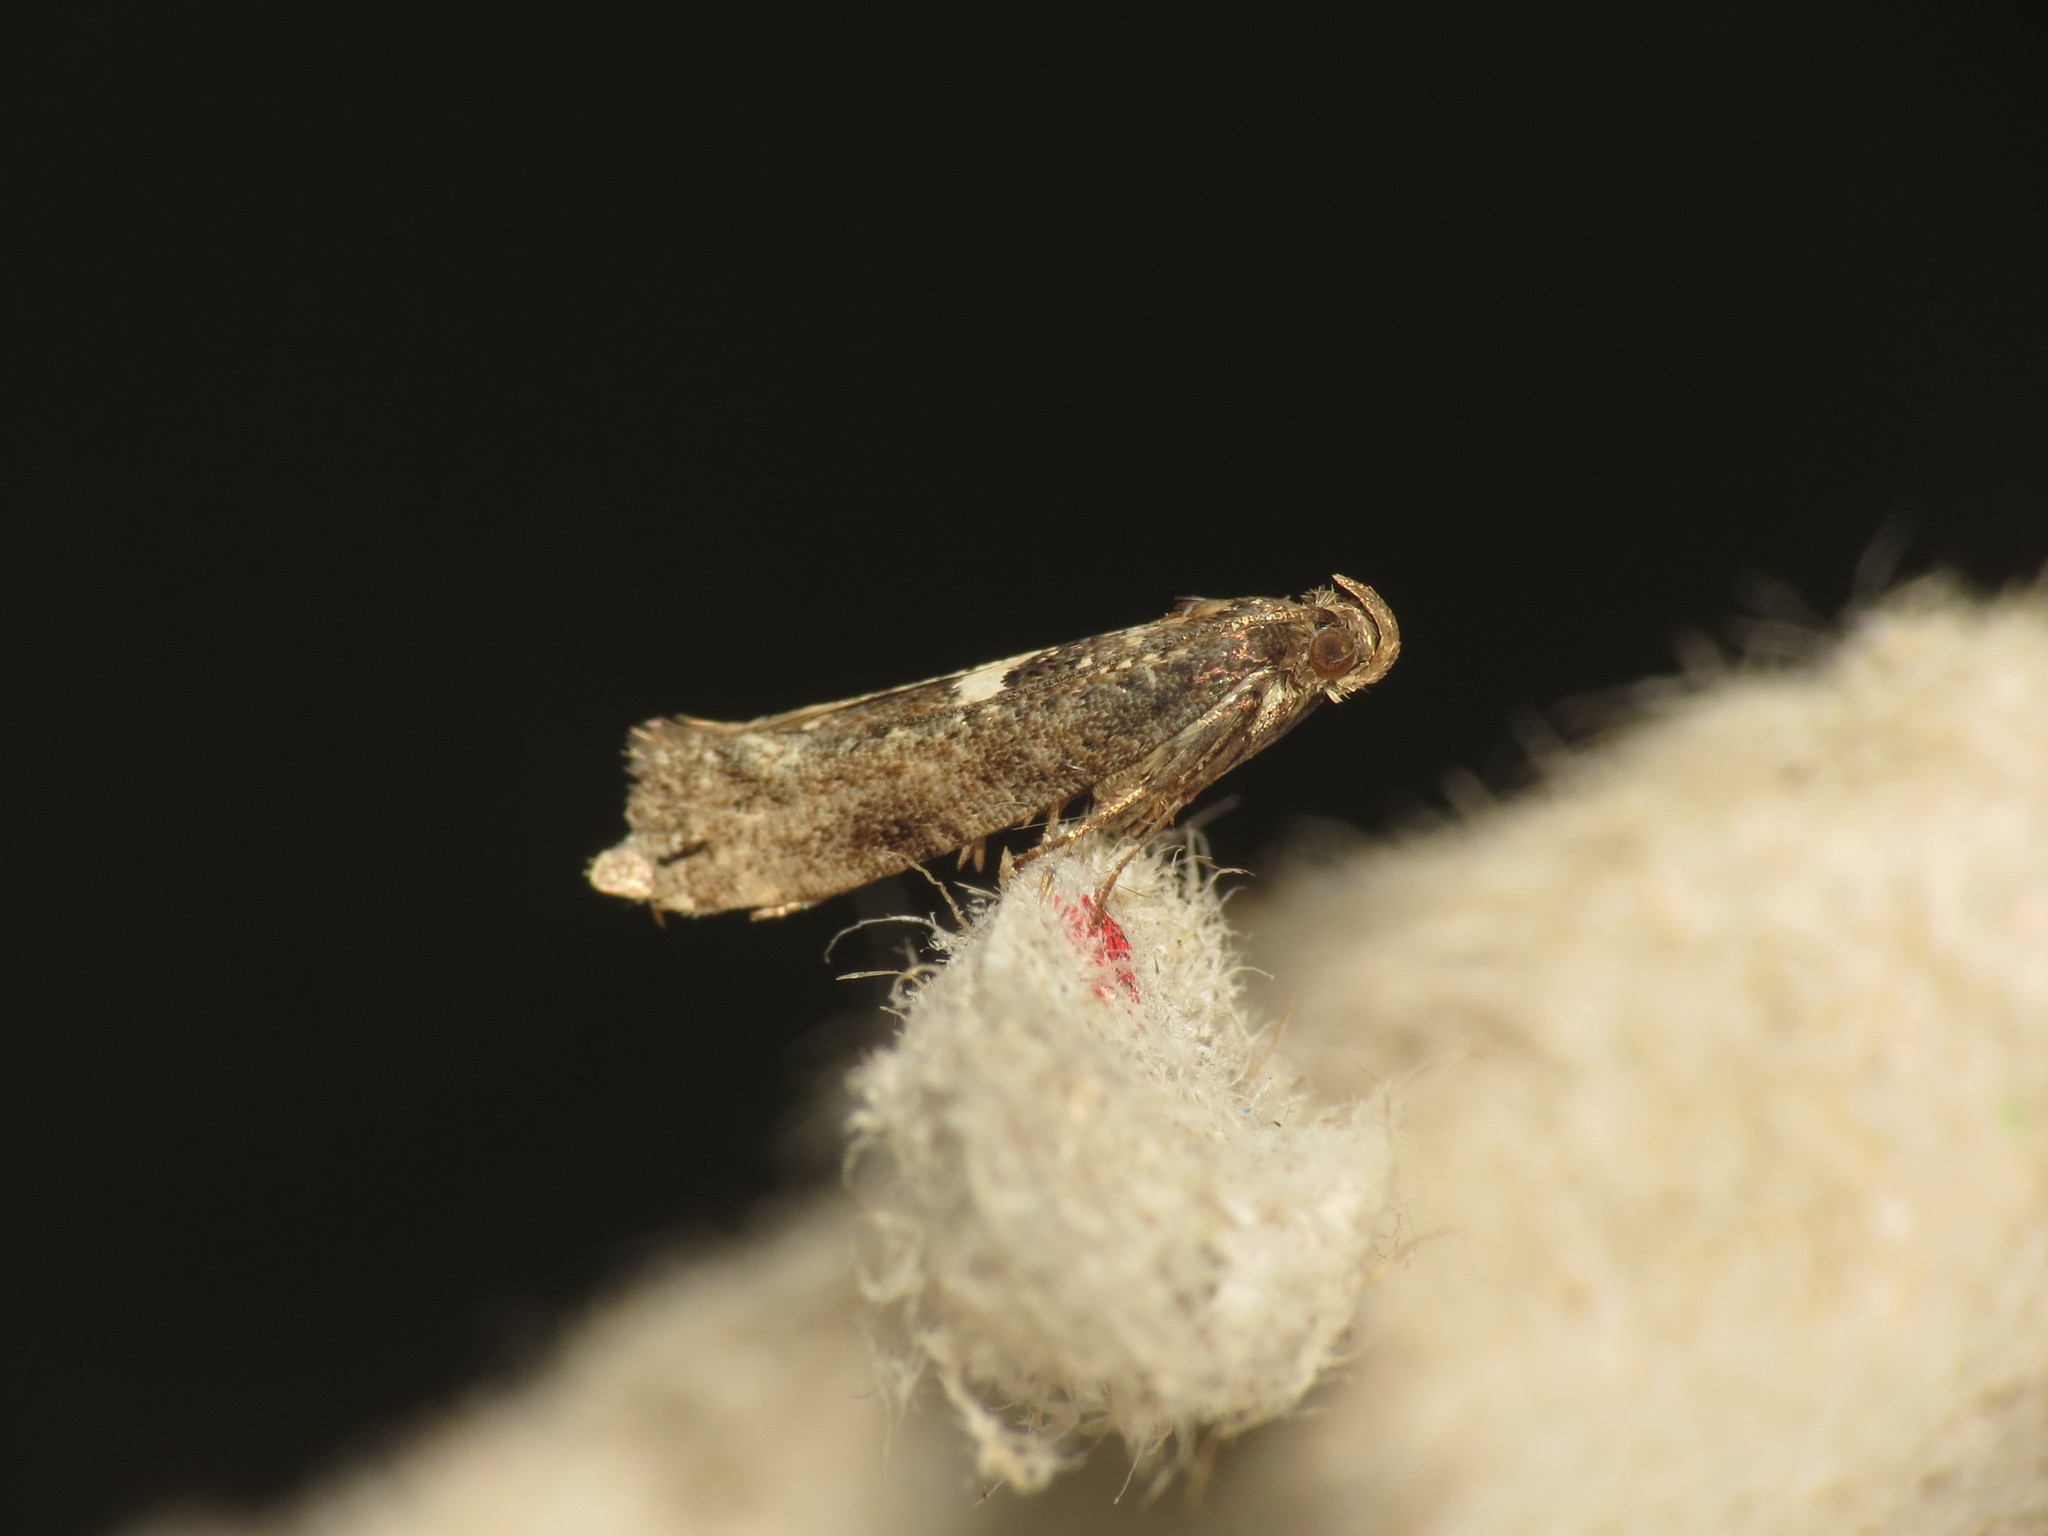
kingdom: Animalia
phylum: Arthropoda
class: Insecta
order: Lepidoptera
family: Glyphipterigidae
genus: Acrolepia
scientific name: Acrolepia assectella
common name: Onion leaf miner
